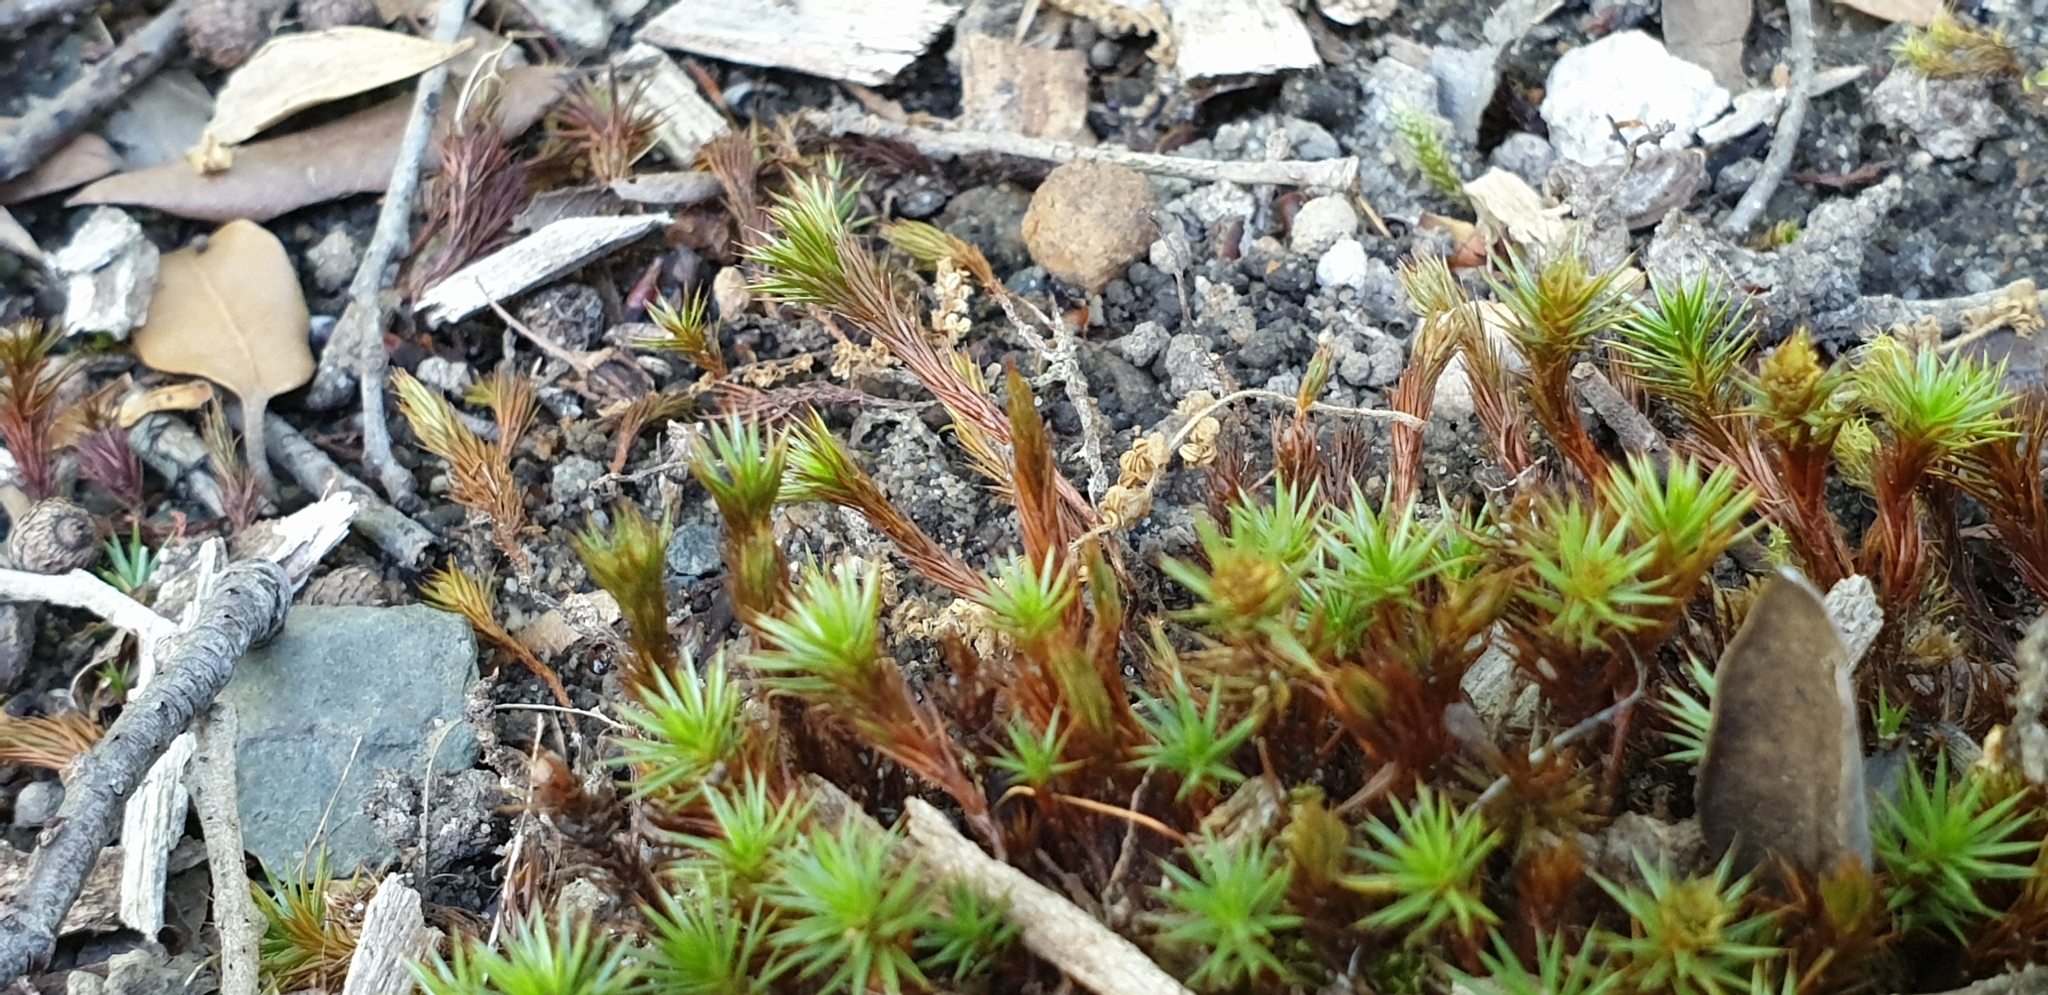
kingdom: Plantae
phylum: Bryophyta
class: Polytrichopsida
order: Polytrichales
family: Polytrichaceae
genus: Polytrichum
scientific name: Polytrichum juniperinum
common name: Juniper haircap moss
